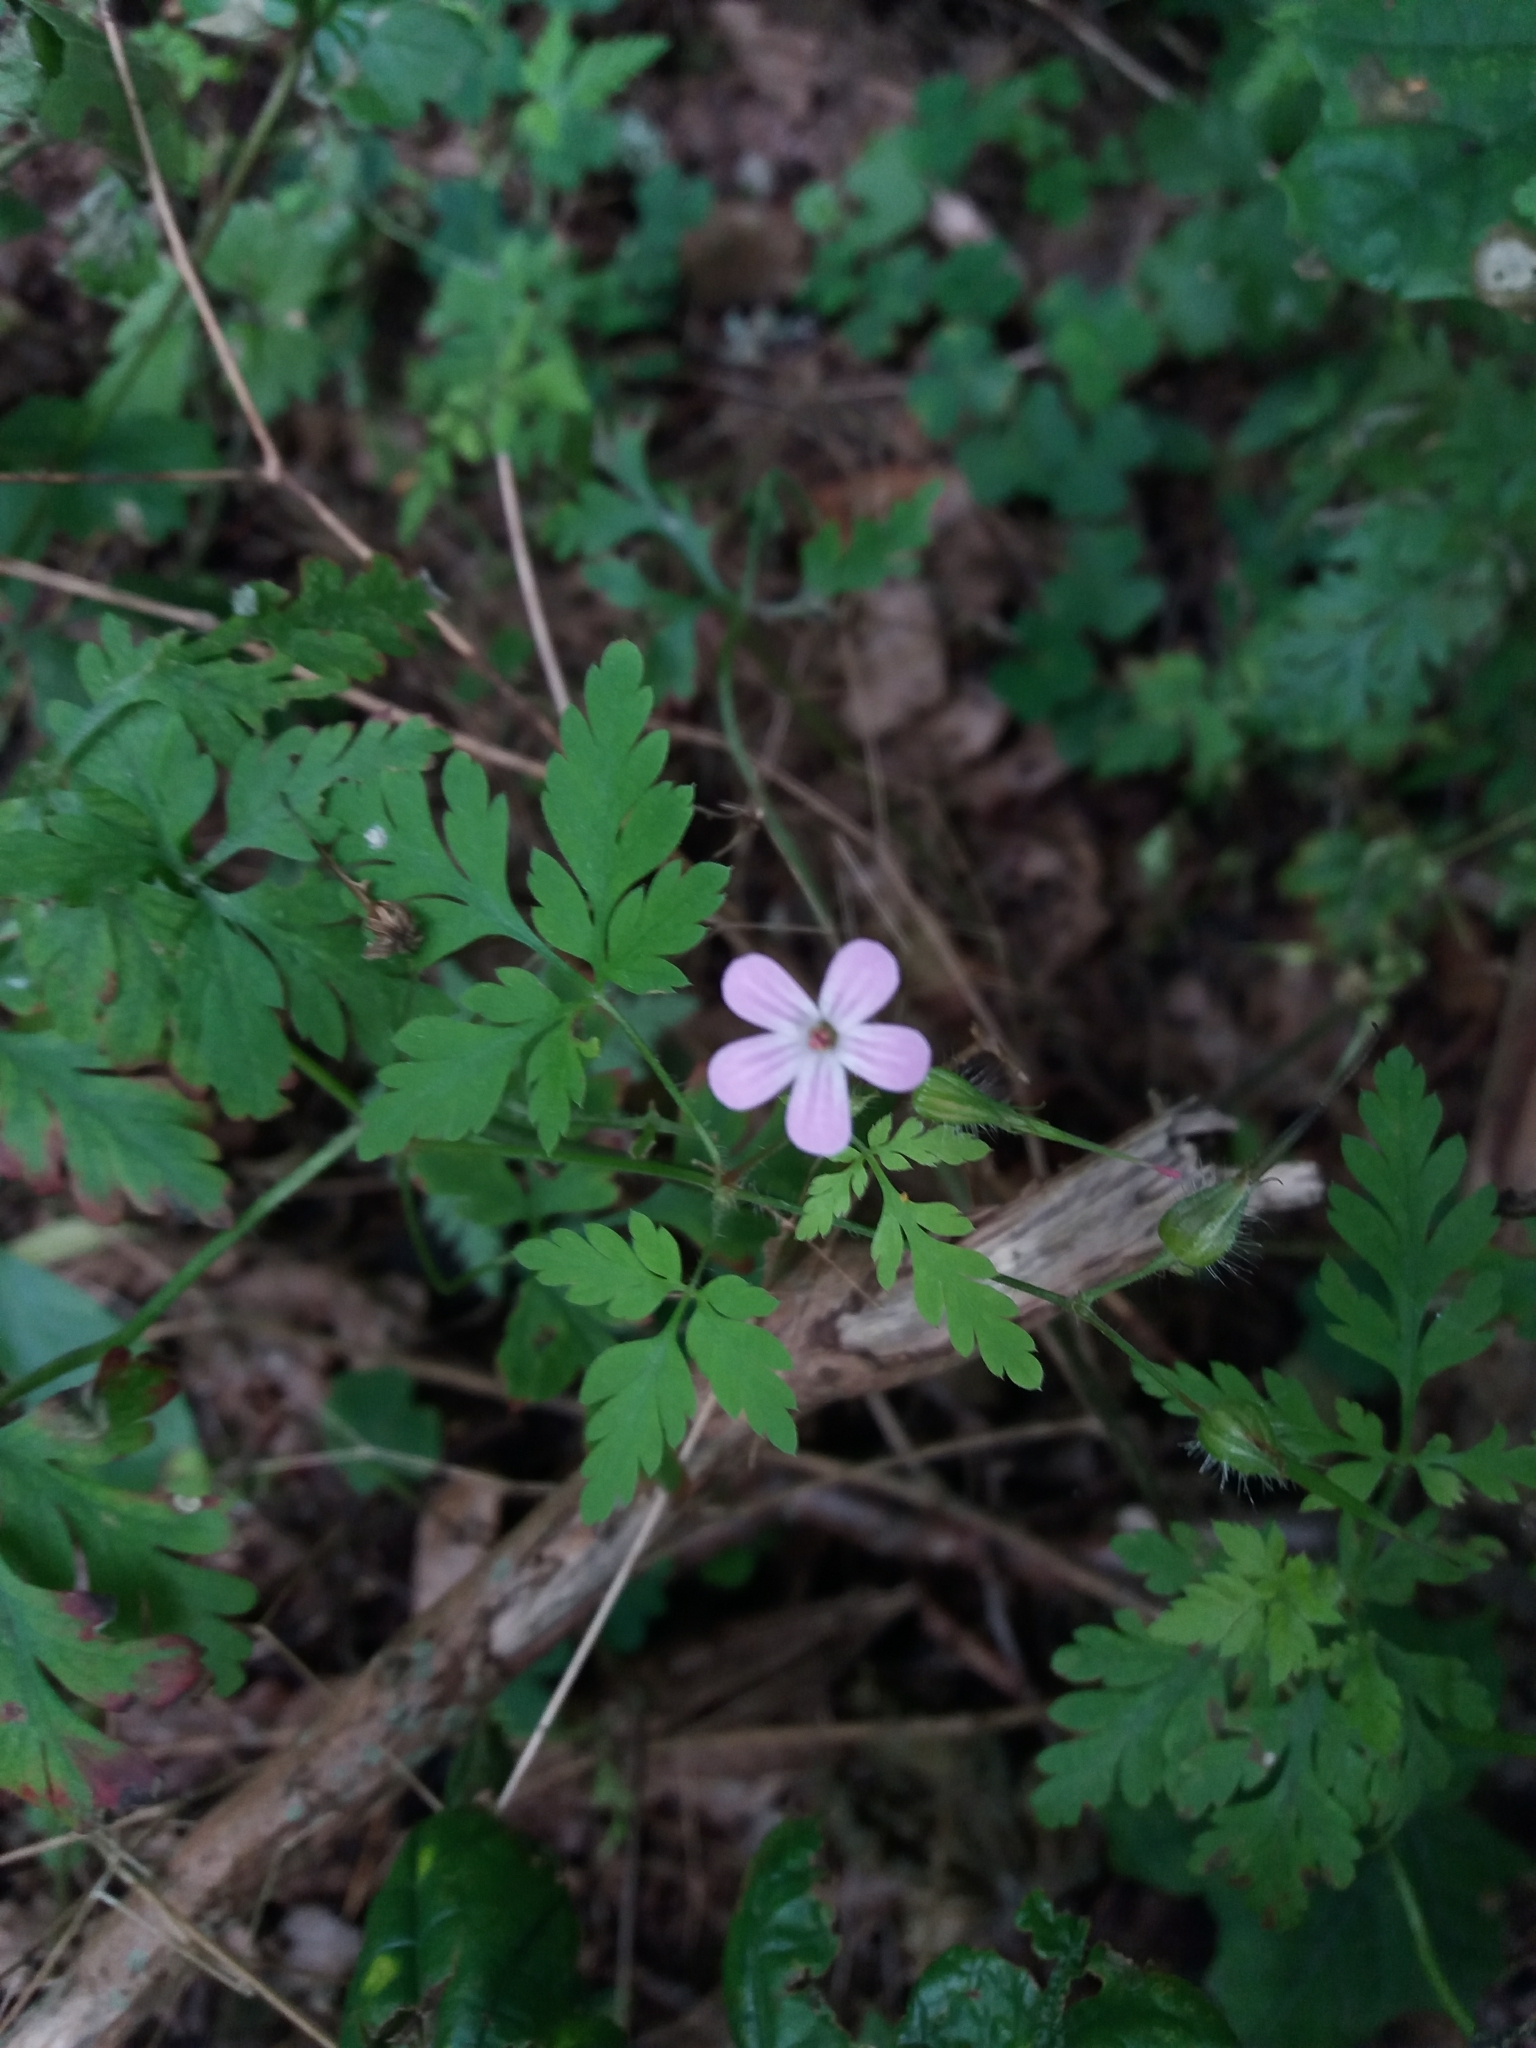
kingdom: Plantae
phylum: Tracheophyta
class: Magnoliopsida
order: Geraniales
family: Geraniaceae
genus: Geranium
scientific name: Geranium robertianum
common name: Herb-robert
